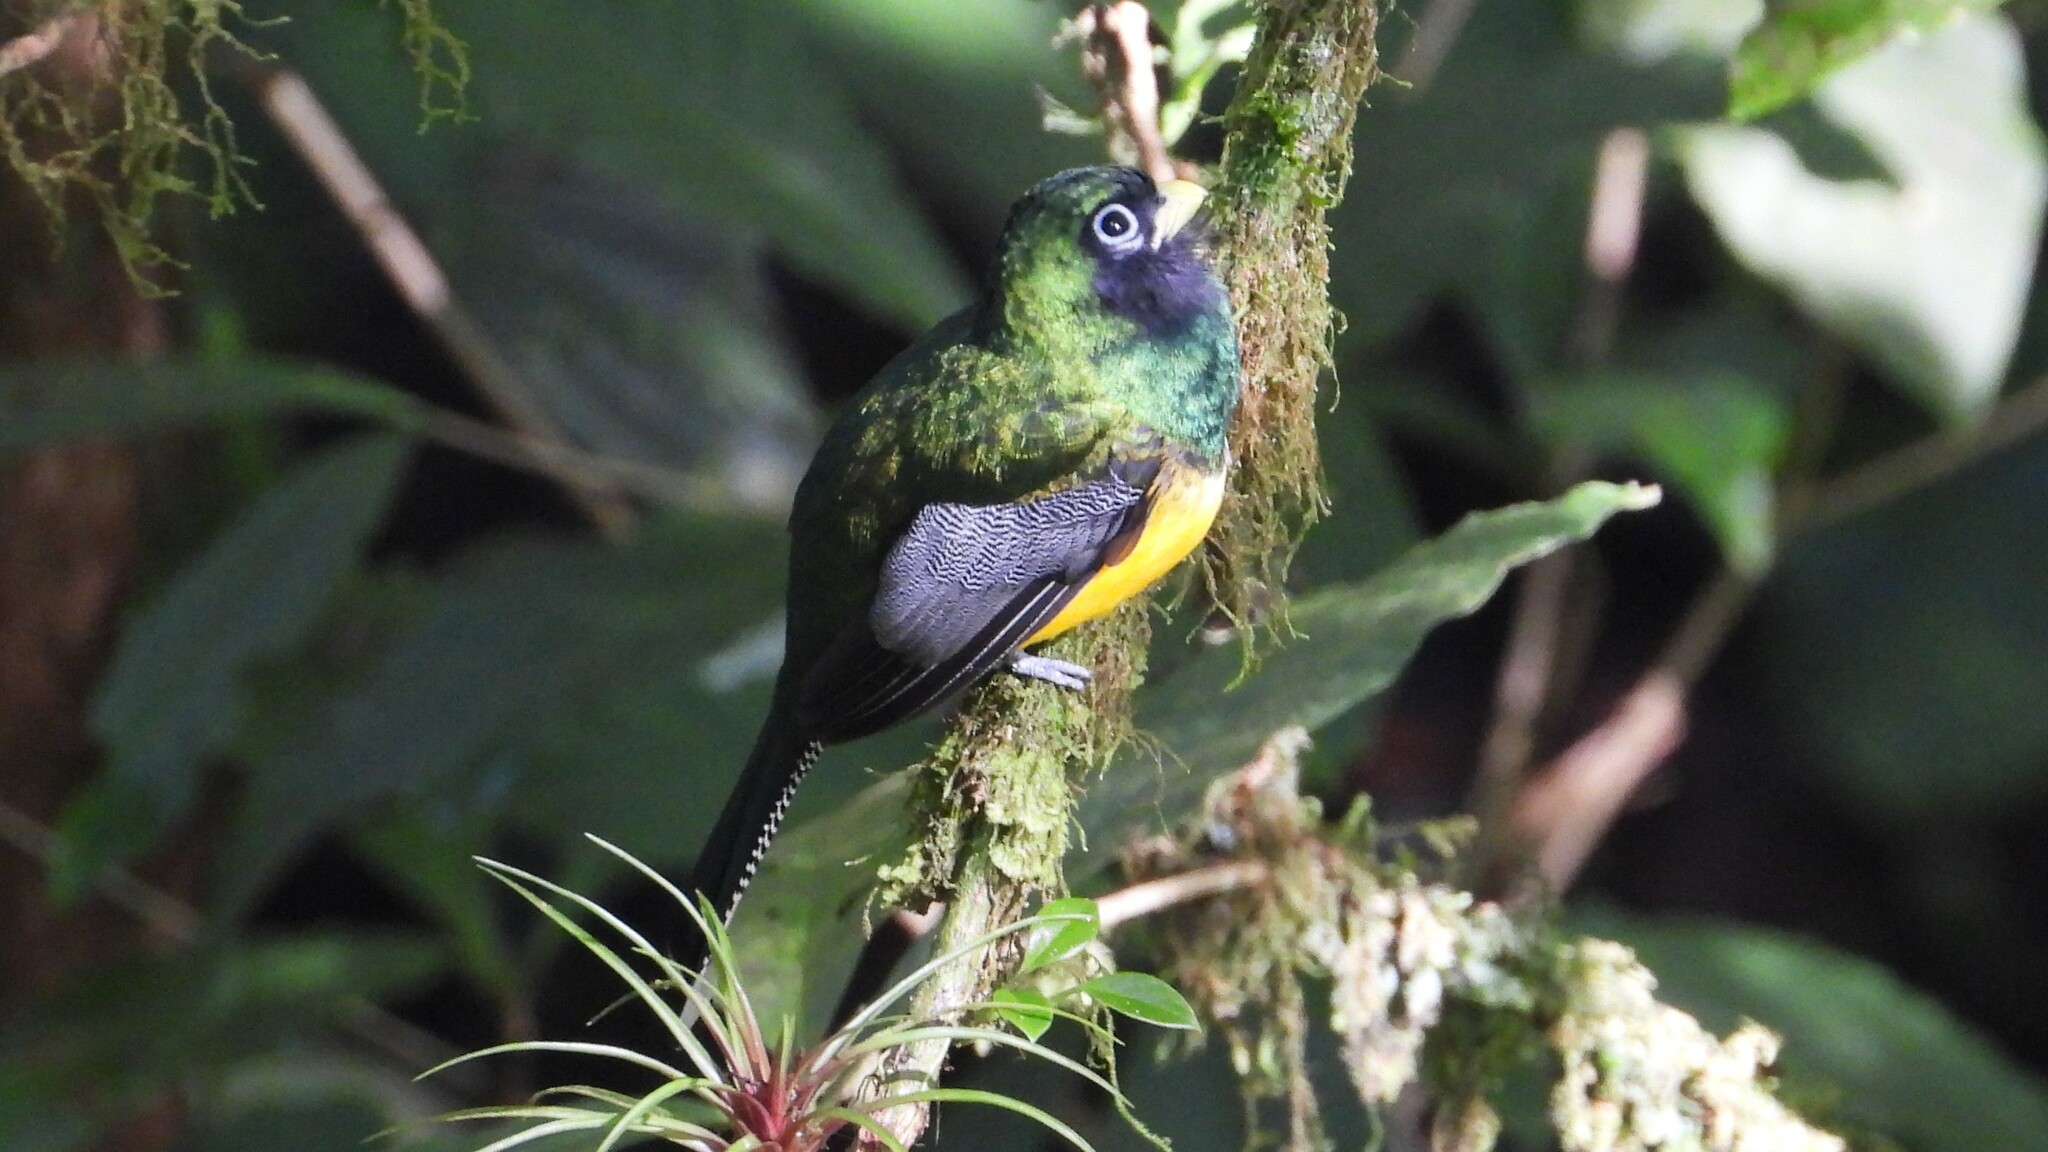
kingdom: Animalia
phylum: Chordata
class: Aves
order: Trogoniformes
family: Trogonidae
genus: Trogon
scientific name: Trogon rufus
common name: Black-throated trogon
